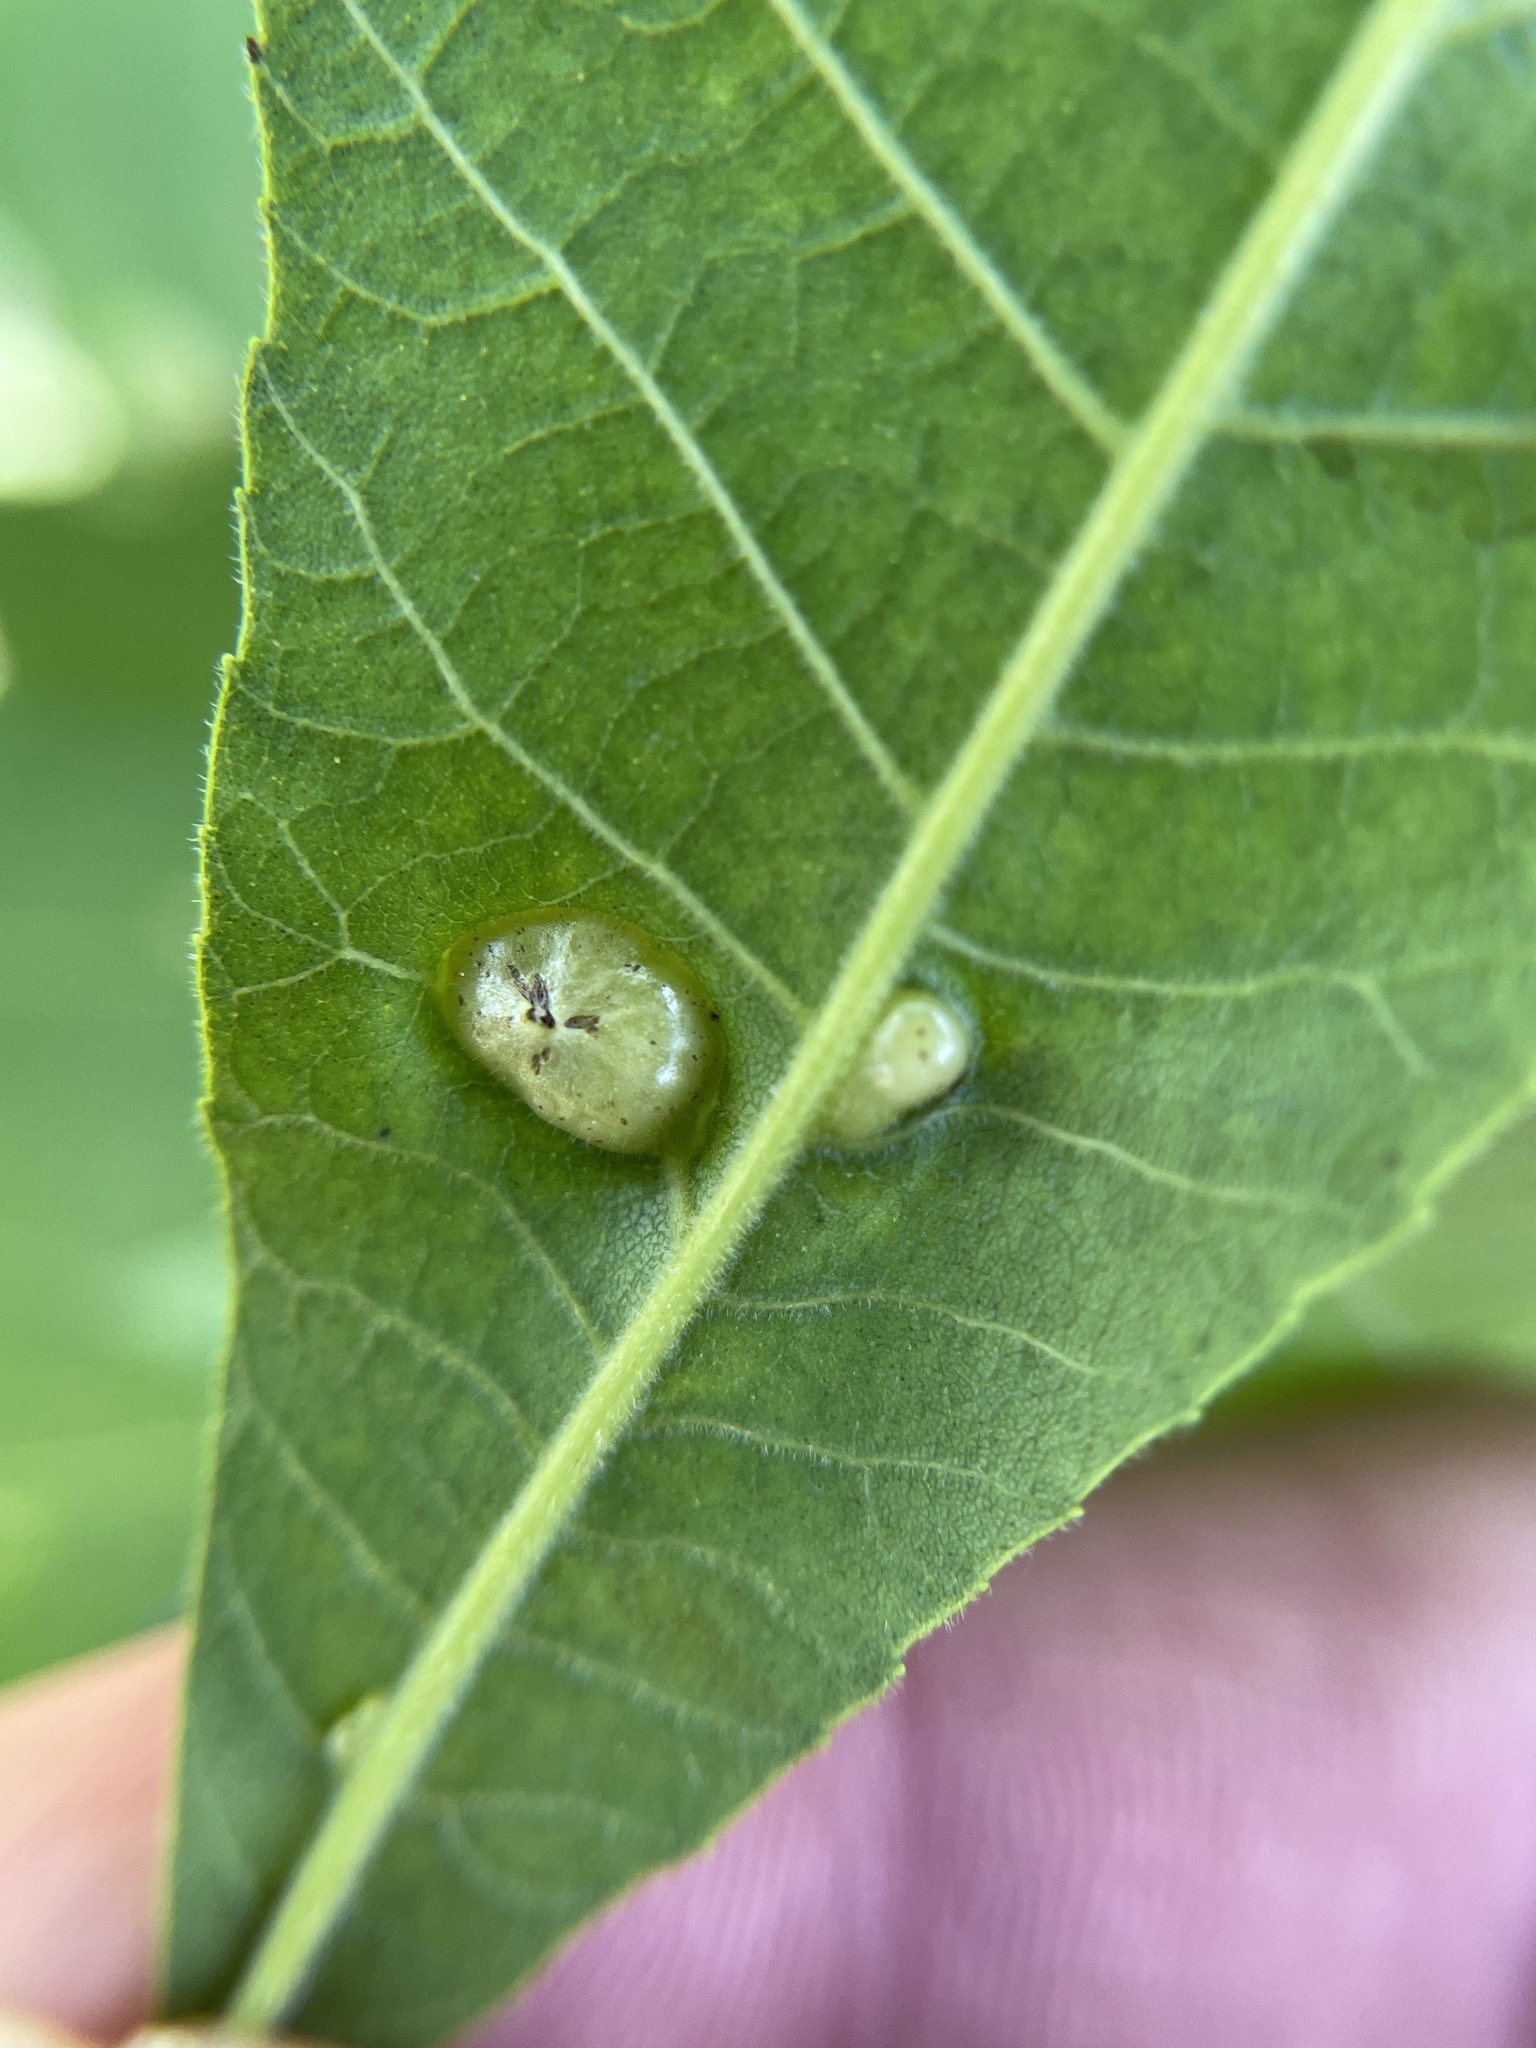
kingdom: Animalia
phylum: Arthropoda
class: Insecta
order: Hemiptera
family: Phylloxeridae
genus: Daktulosphaira
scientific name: Daktulosphaira notabilis
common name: Pecan leaf phylloxera
